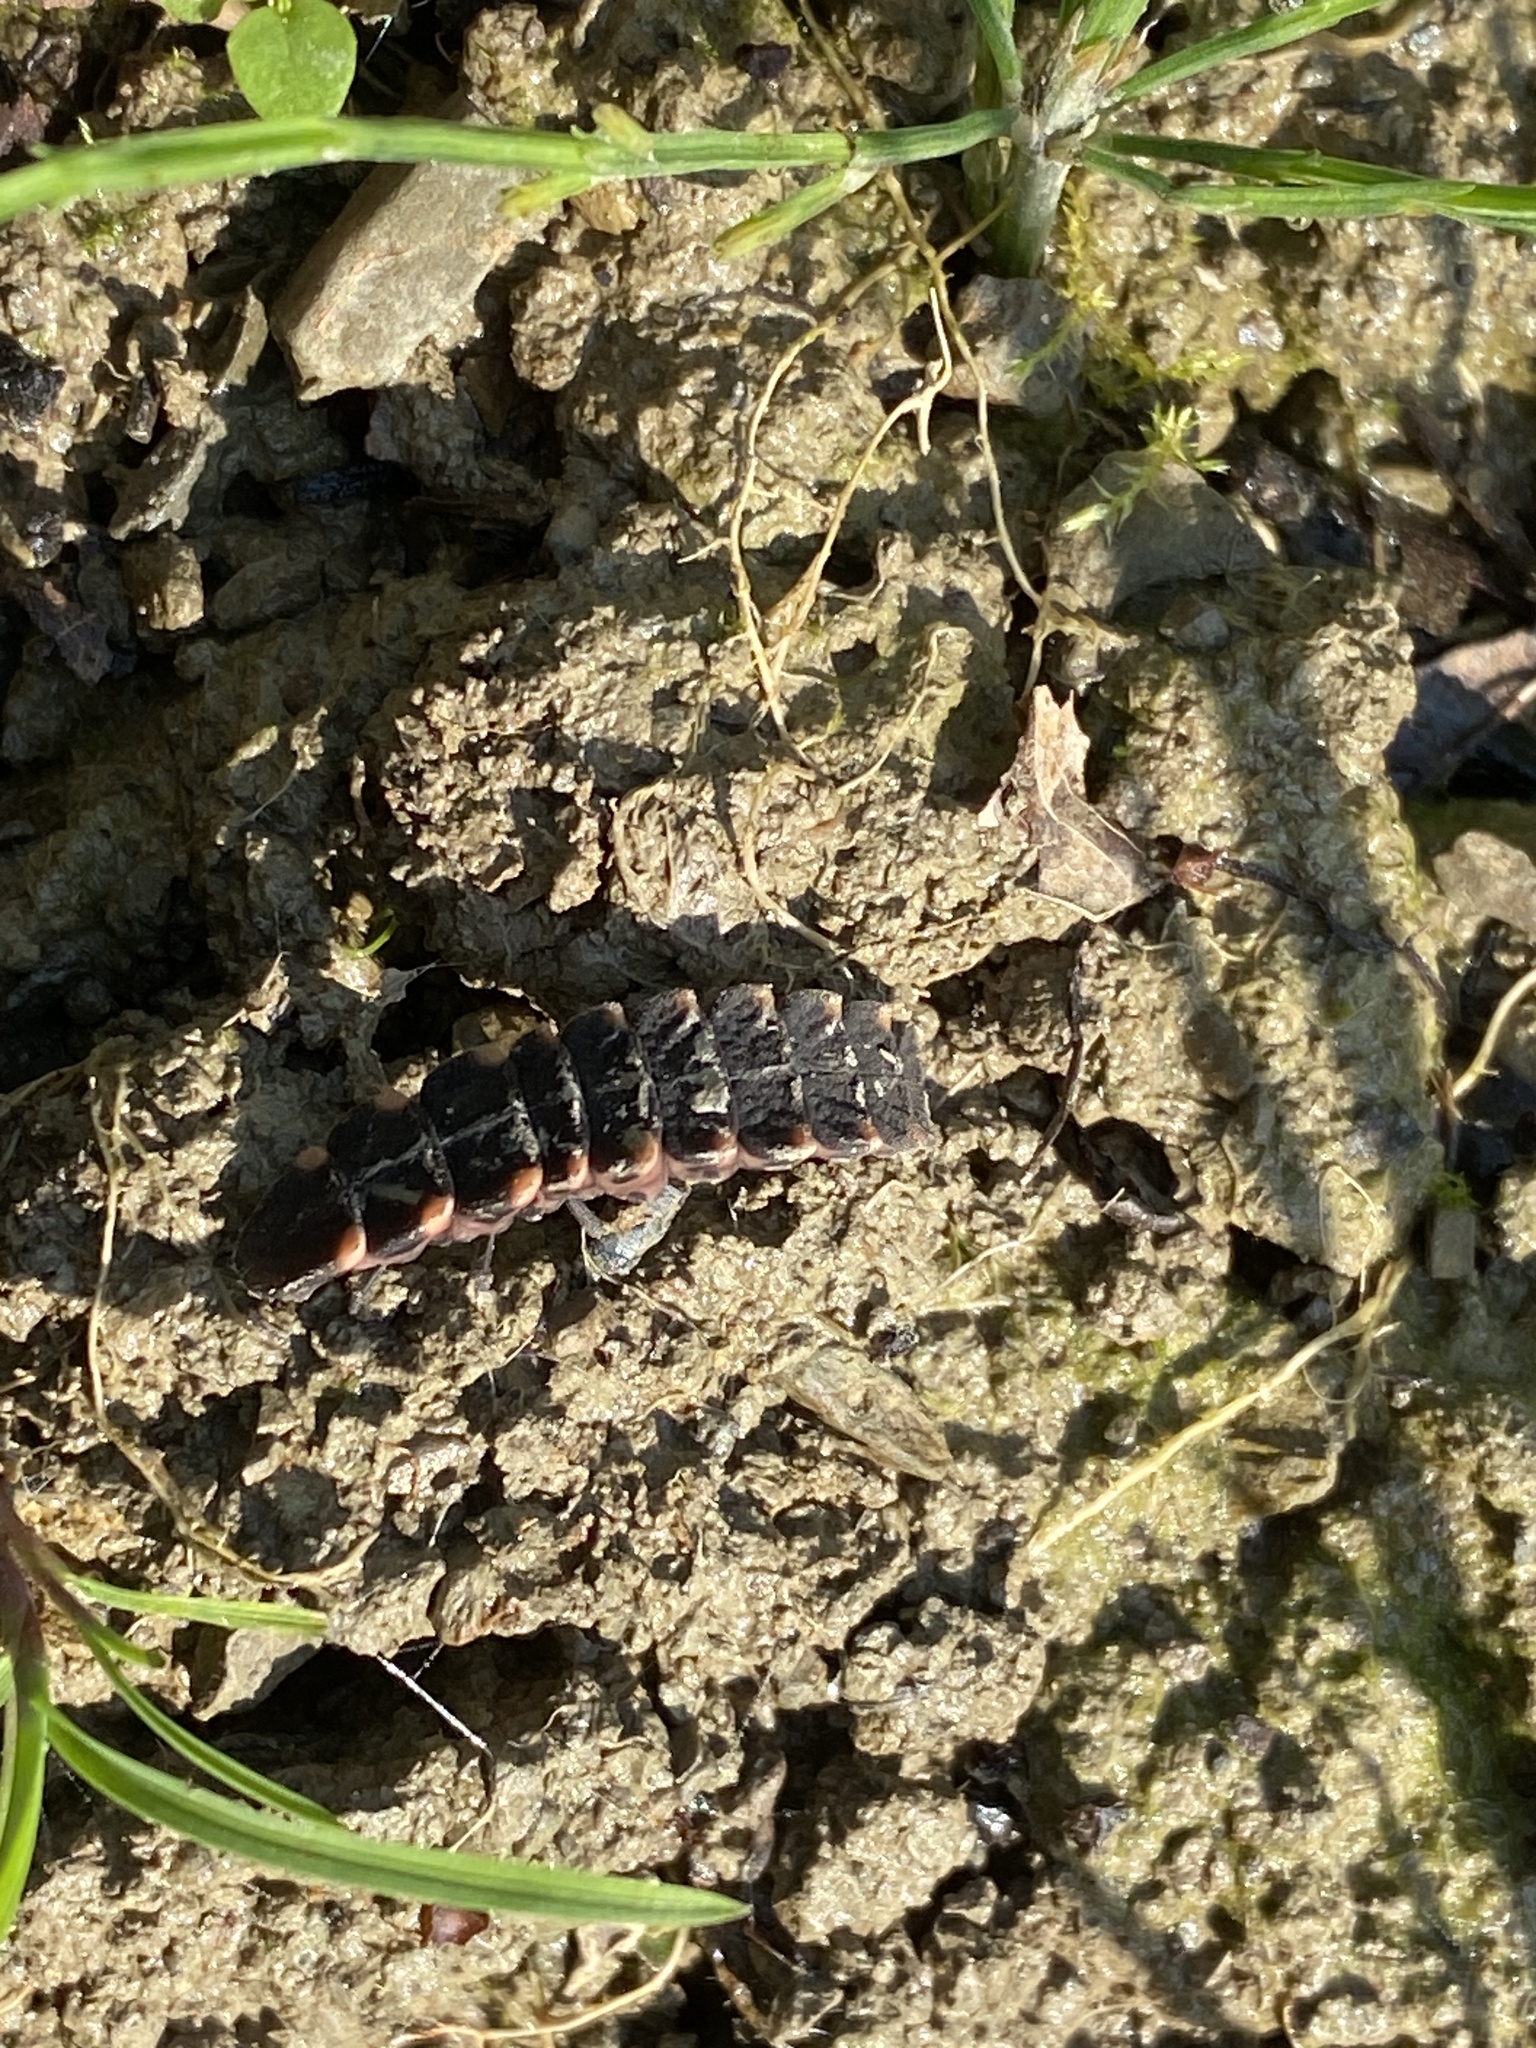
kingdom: Animalia
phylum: Arthropoda
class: Insecta
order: Coleoptera
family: Lampyridae
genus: Lampyris
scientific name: Lampyris noctiluca
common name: Glow-worm
